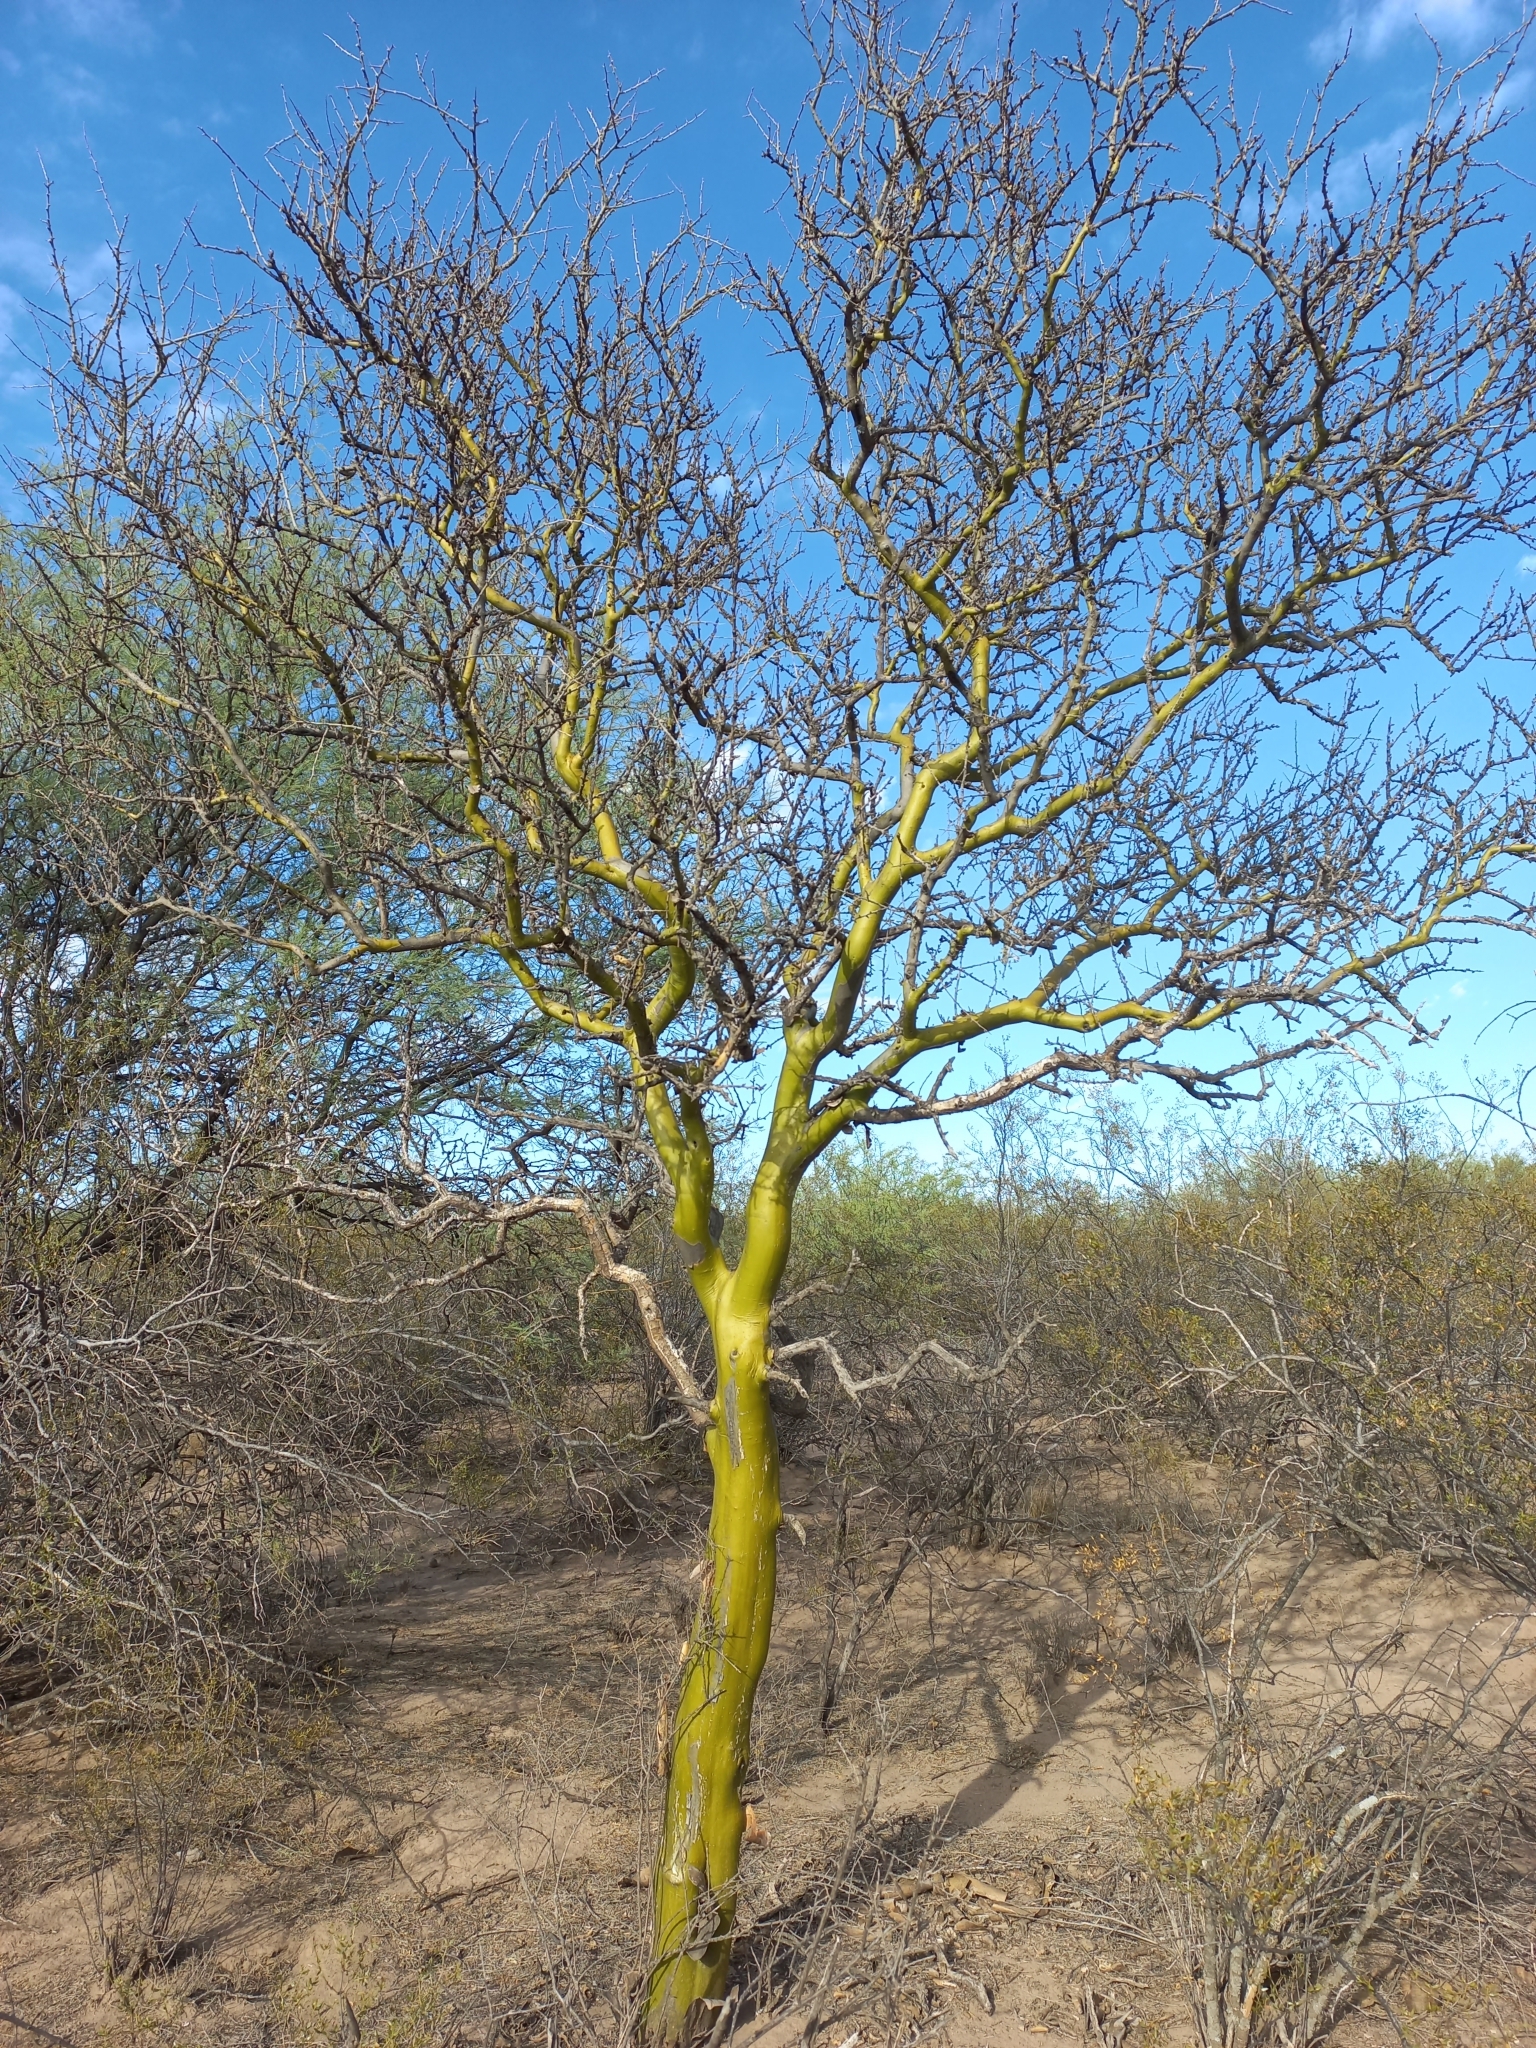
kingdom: Plantae
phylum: Tracheophyta
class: Magnoliopsida
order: Fabales
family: Fabaceae
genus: Geoffroea
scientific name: Geoffroea decorticans
